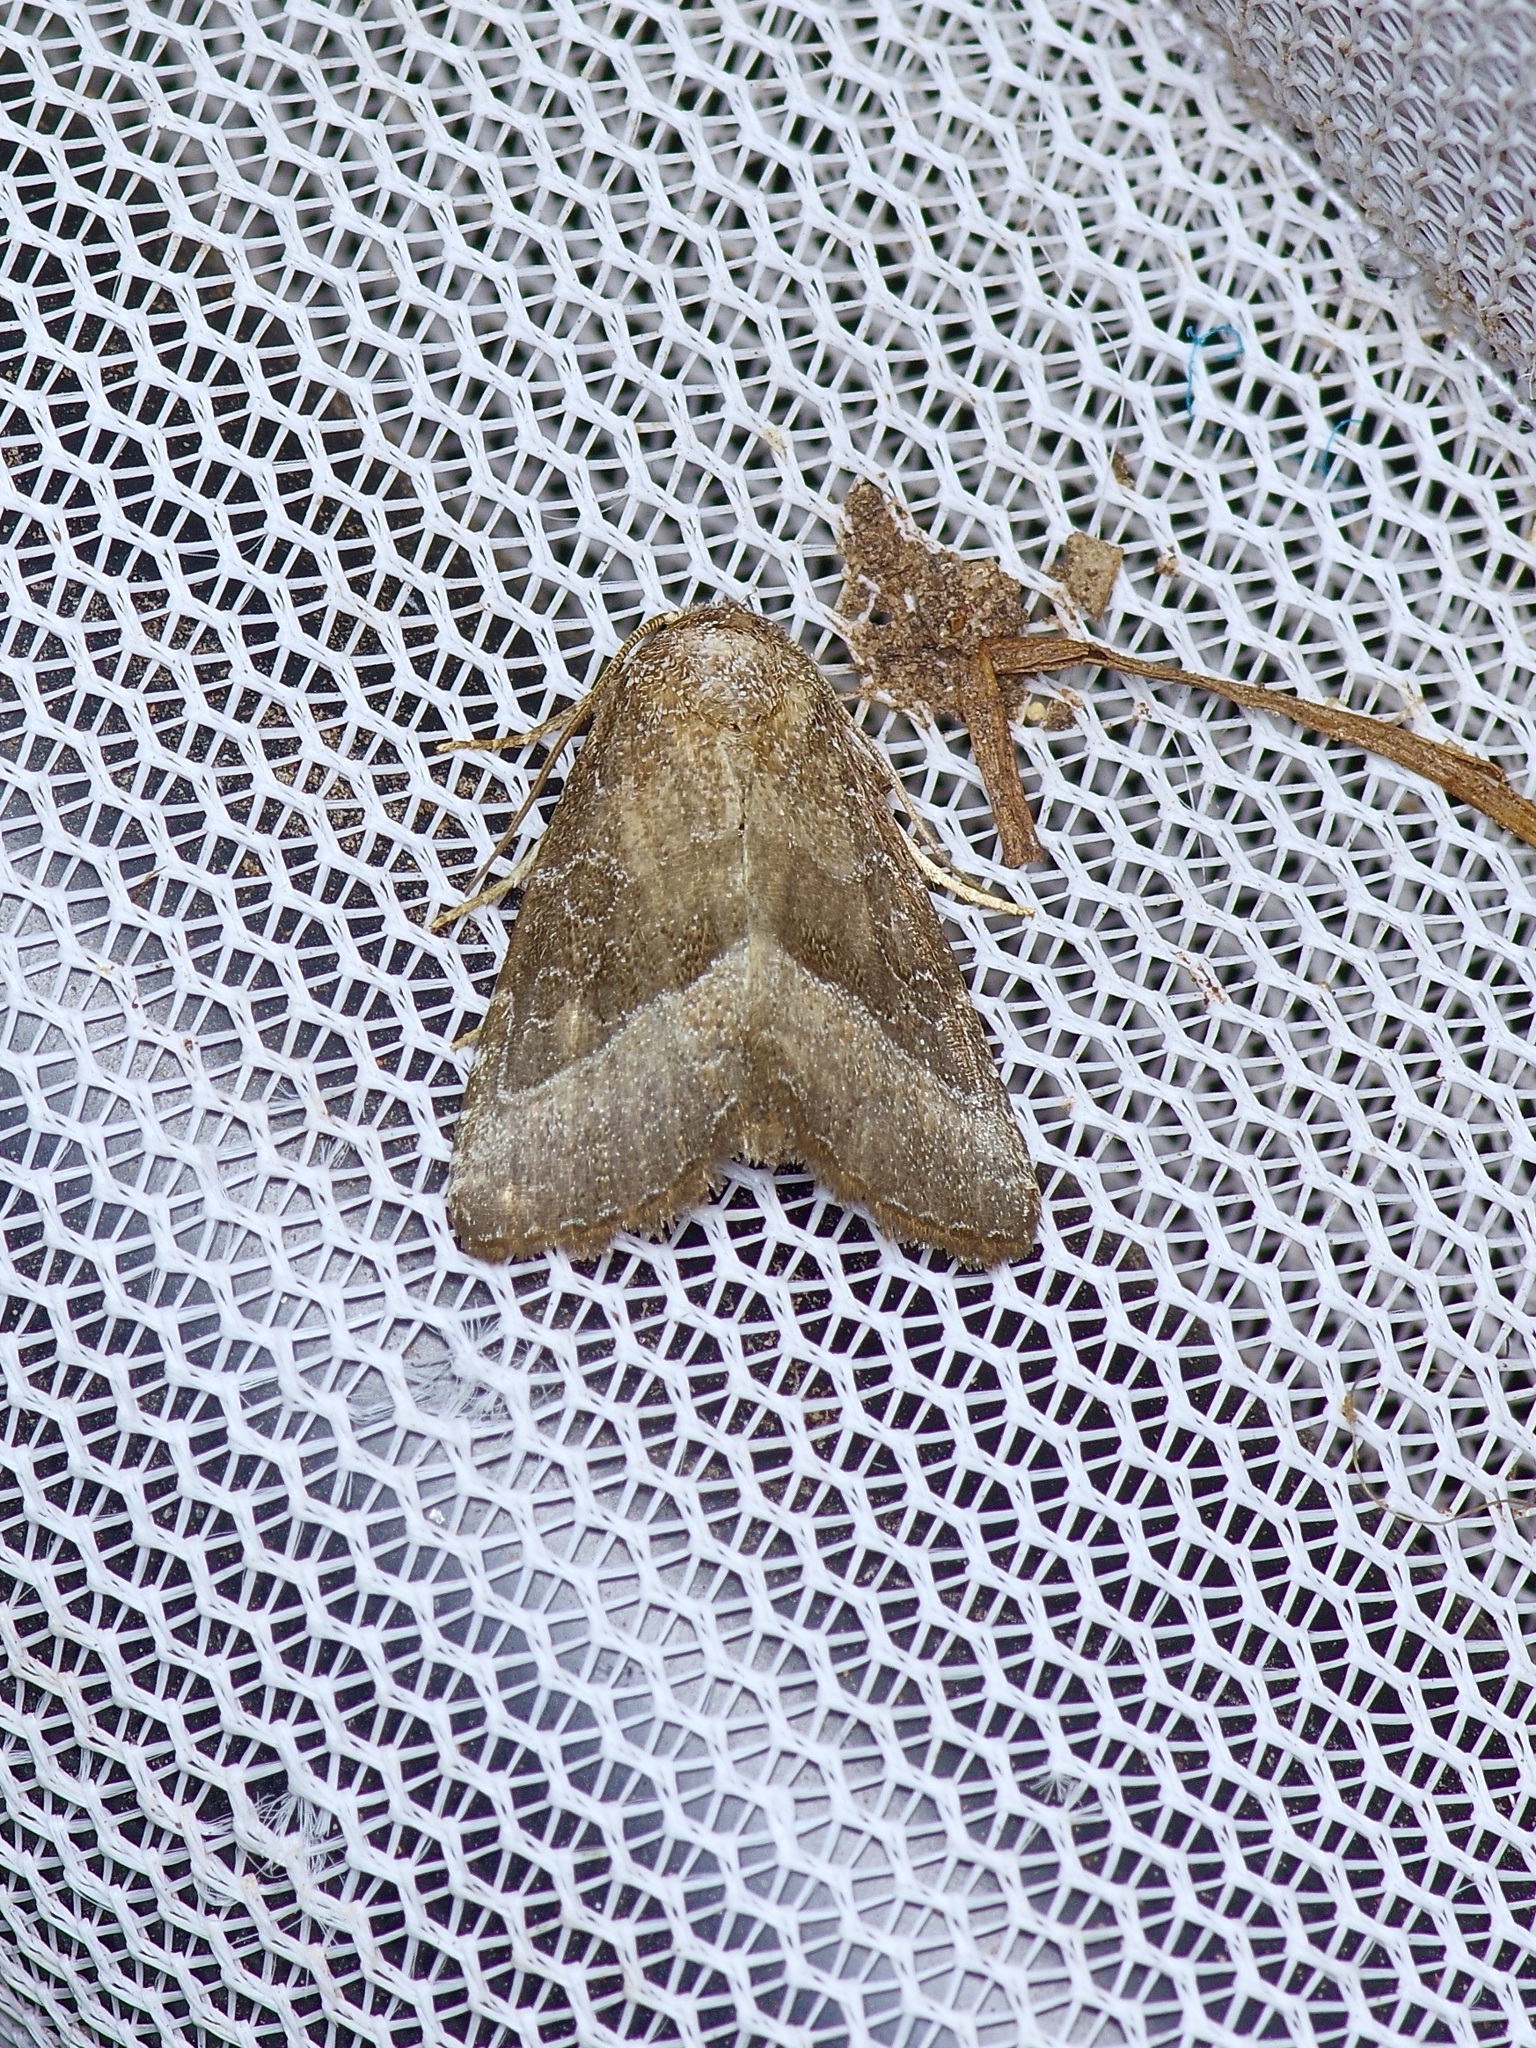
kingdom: Animalia
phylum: Arthropoda
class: Insecta
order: Lepidoptera
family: Noctuidae
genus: Ogdoconta
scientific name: Ogdoconta cinereola
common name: Common pinkband
